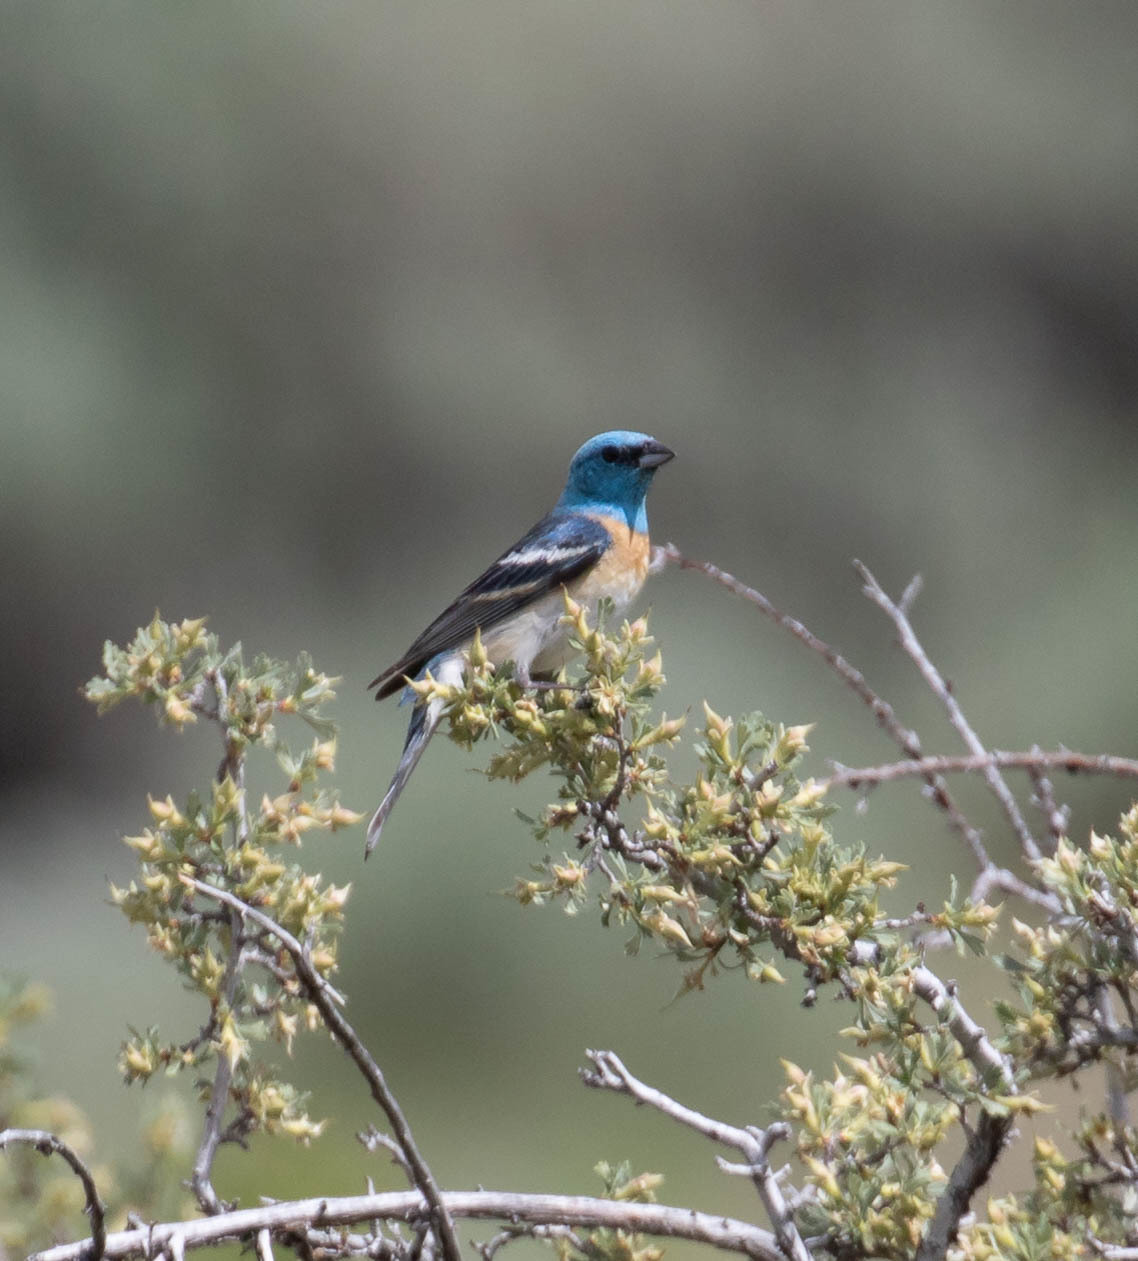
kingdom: Animalia
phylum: Chordata
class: Aves
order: Passeriformes
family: Cardinalidae
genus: Passerina
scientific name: Passerina amoena
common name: Lazuli bunting
